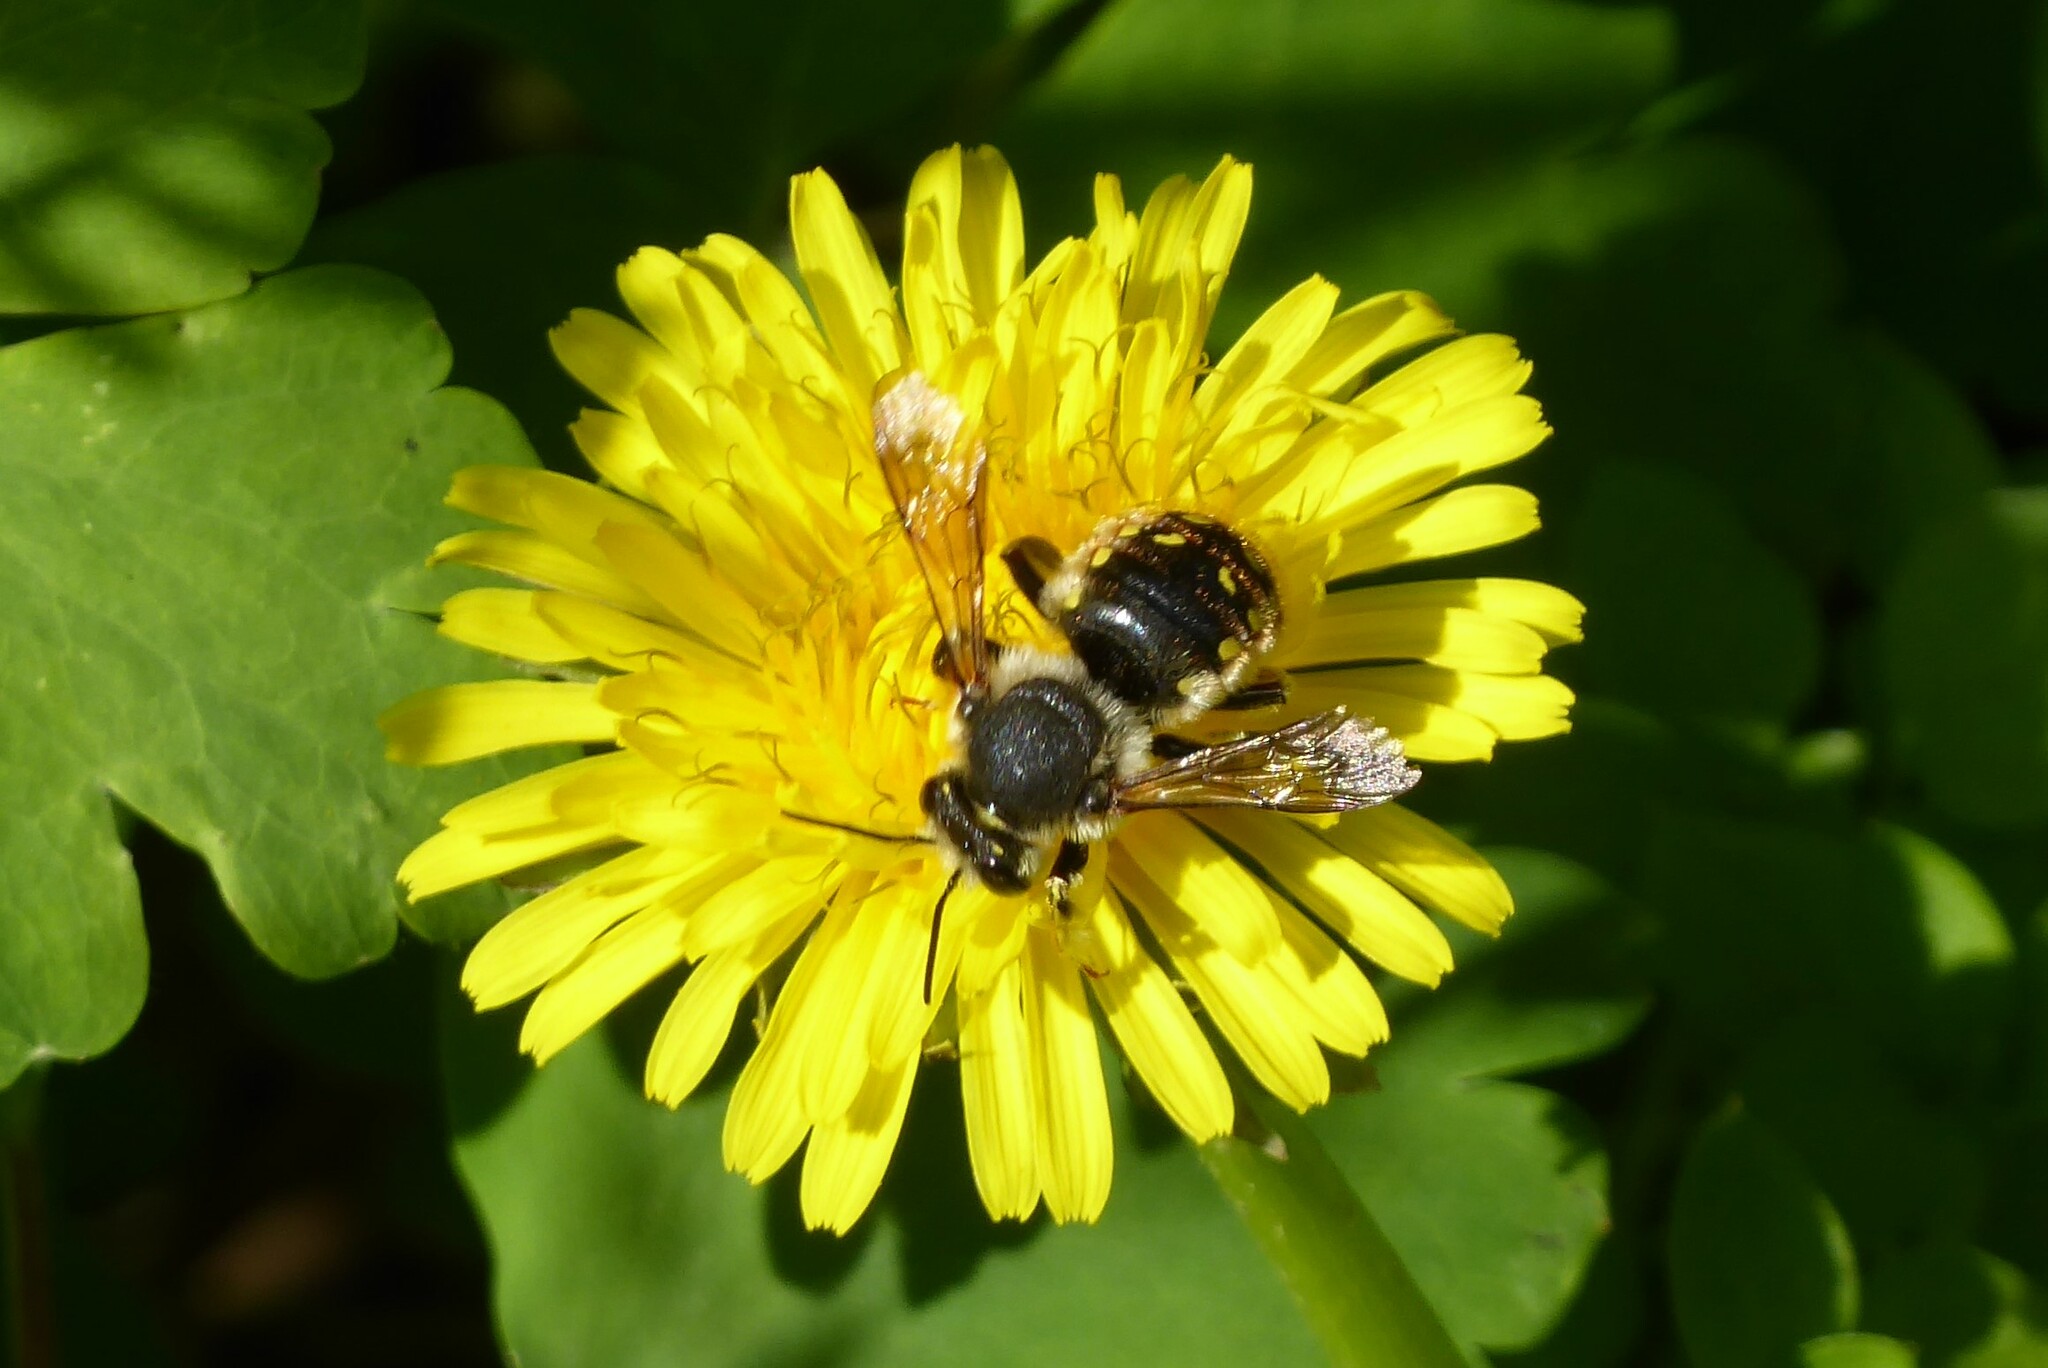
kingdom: Animalia
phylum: Arthropoda
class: Insecta
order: Hymenoptera
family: Megachilidae
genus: Anthidium
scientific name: Anthidium manicatum
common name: Wool carder bee
